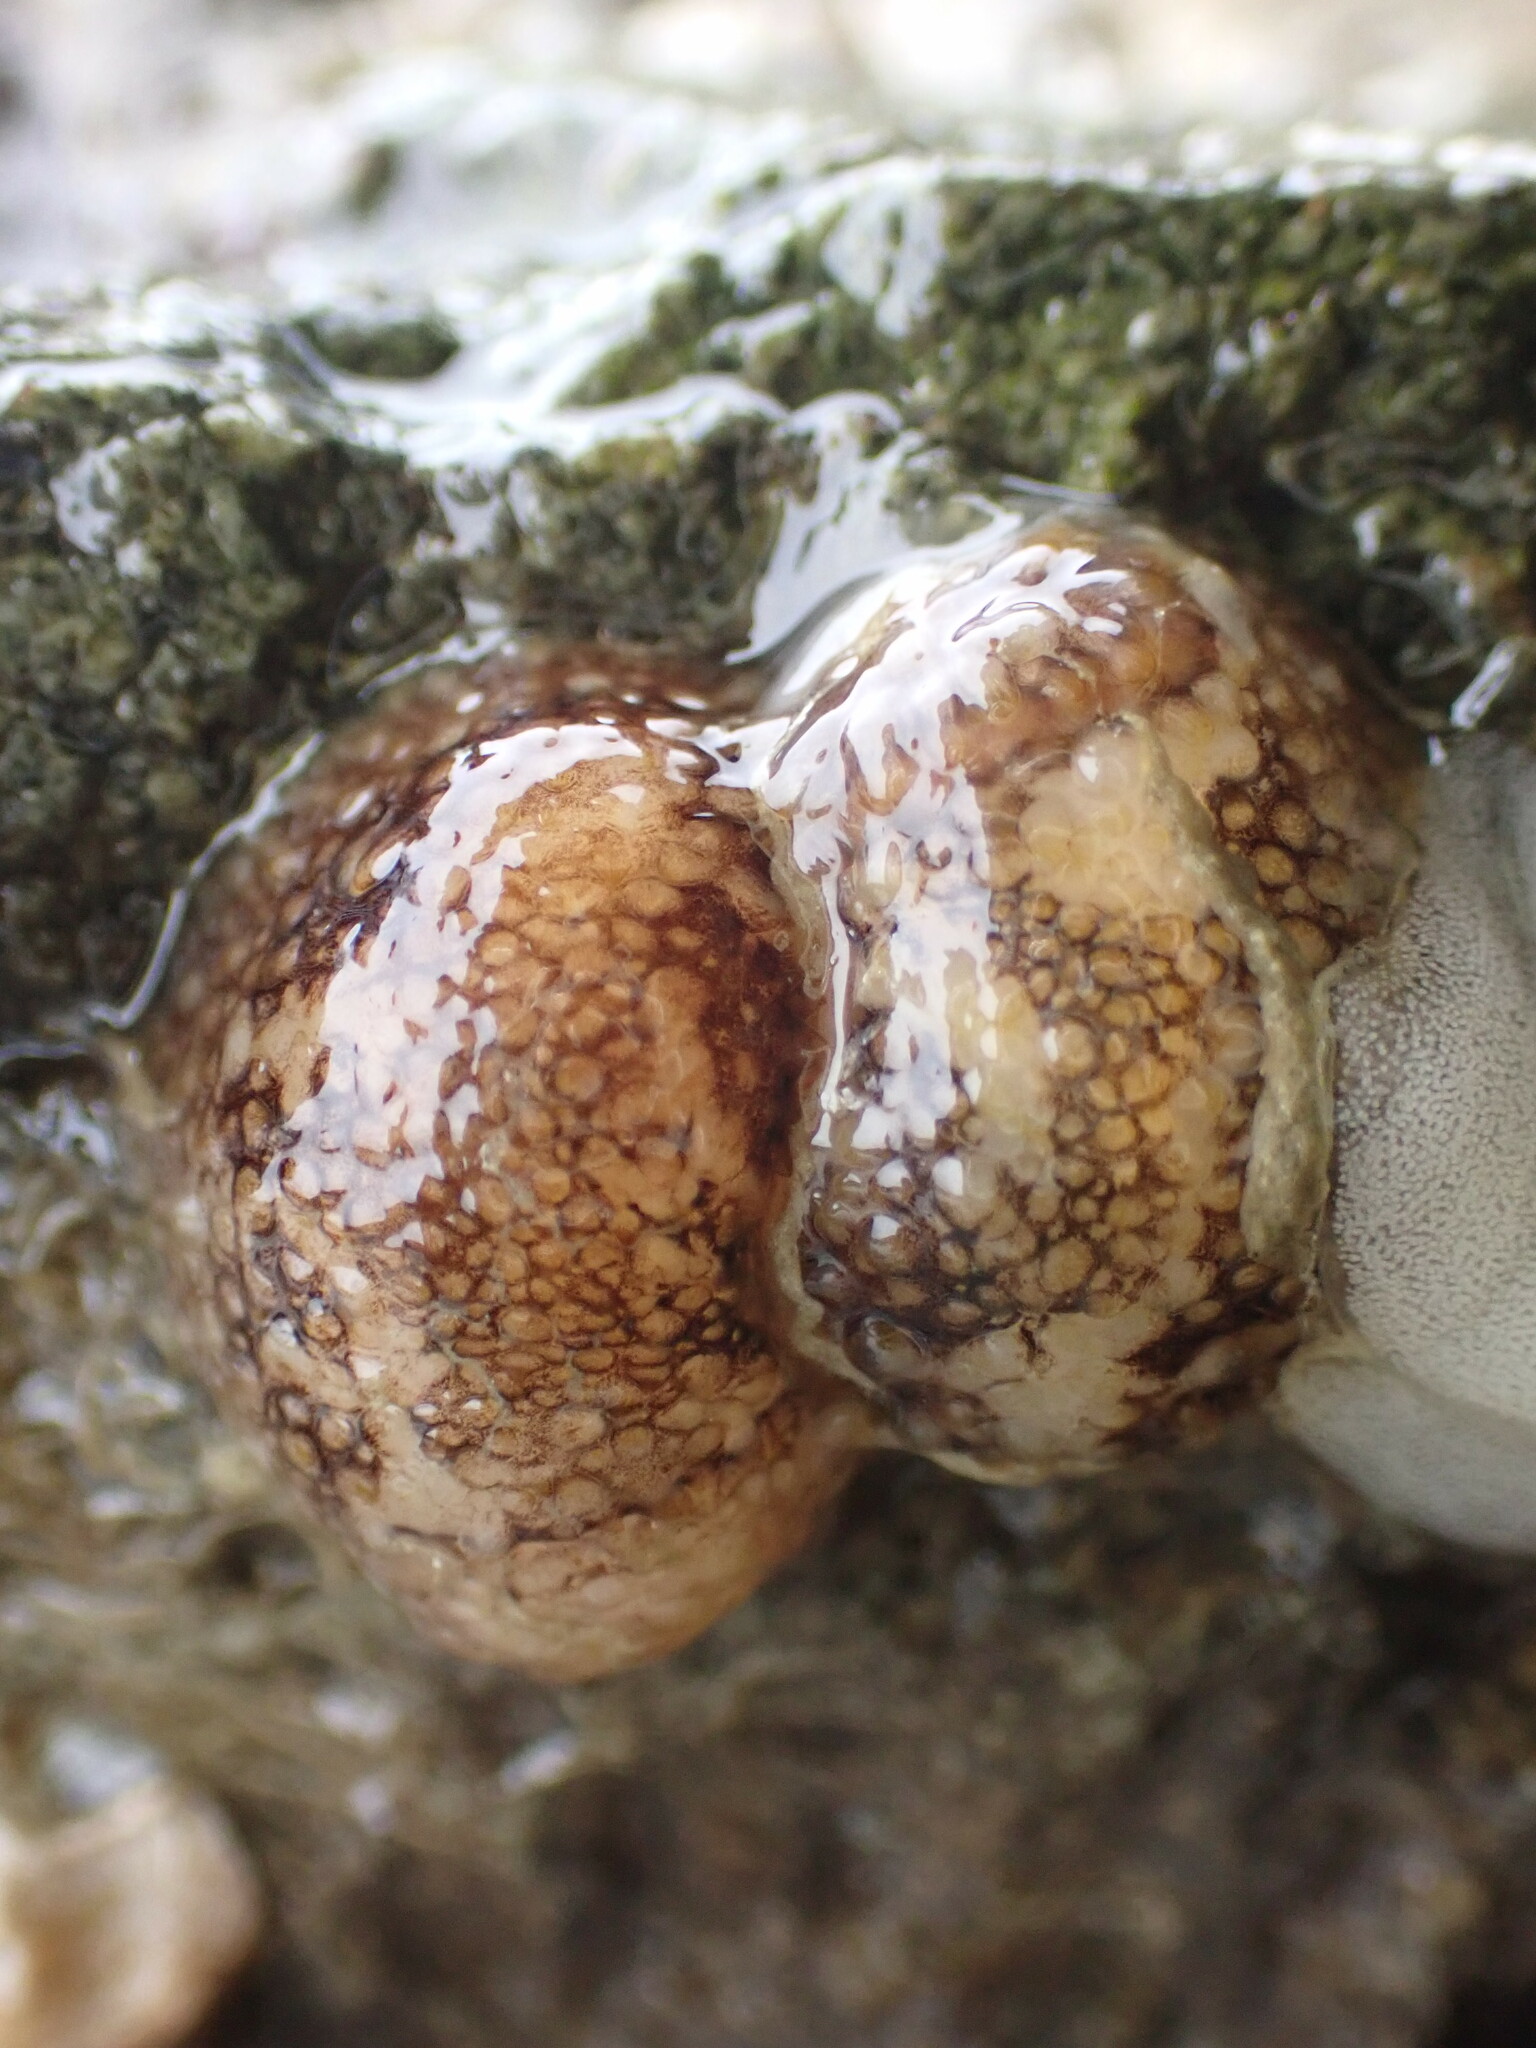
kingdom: Animalia
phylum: Mollusca
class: Gastropoda
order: Nudibranchia
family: Onchidorididae
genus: Onchidoris
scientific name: Onchidoris bilamellata
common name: Barnacle-eating onchidoris
